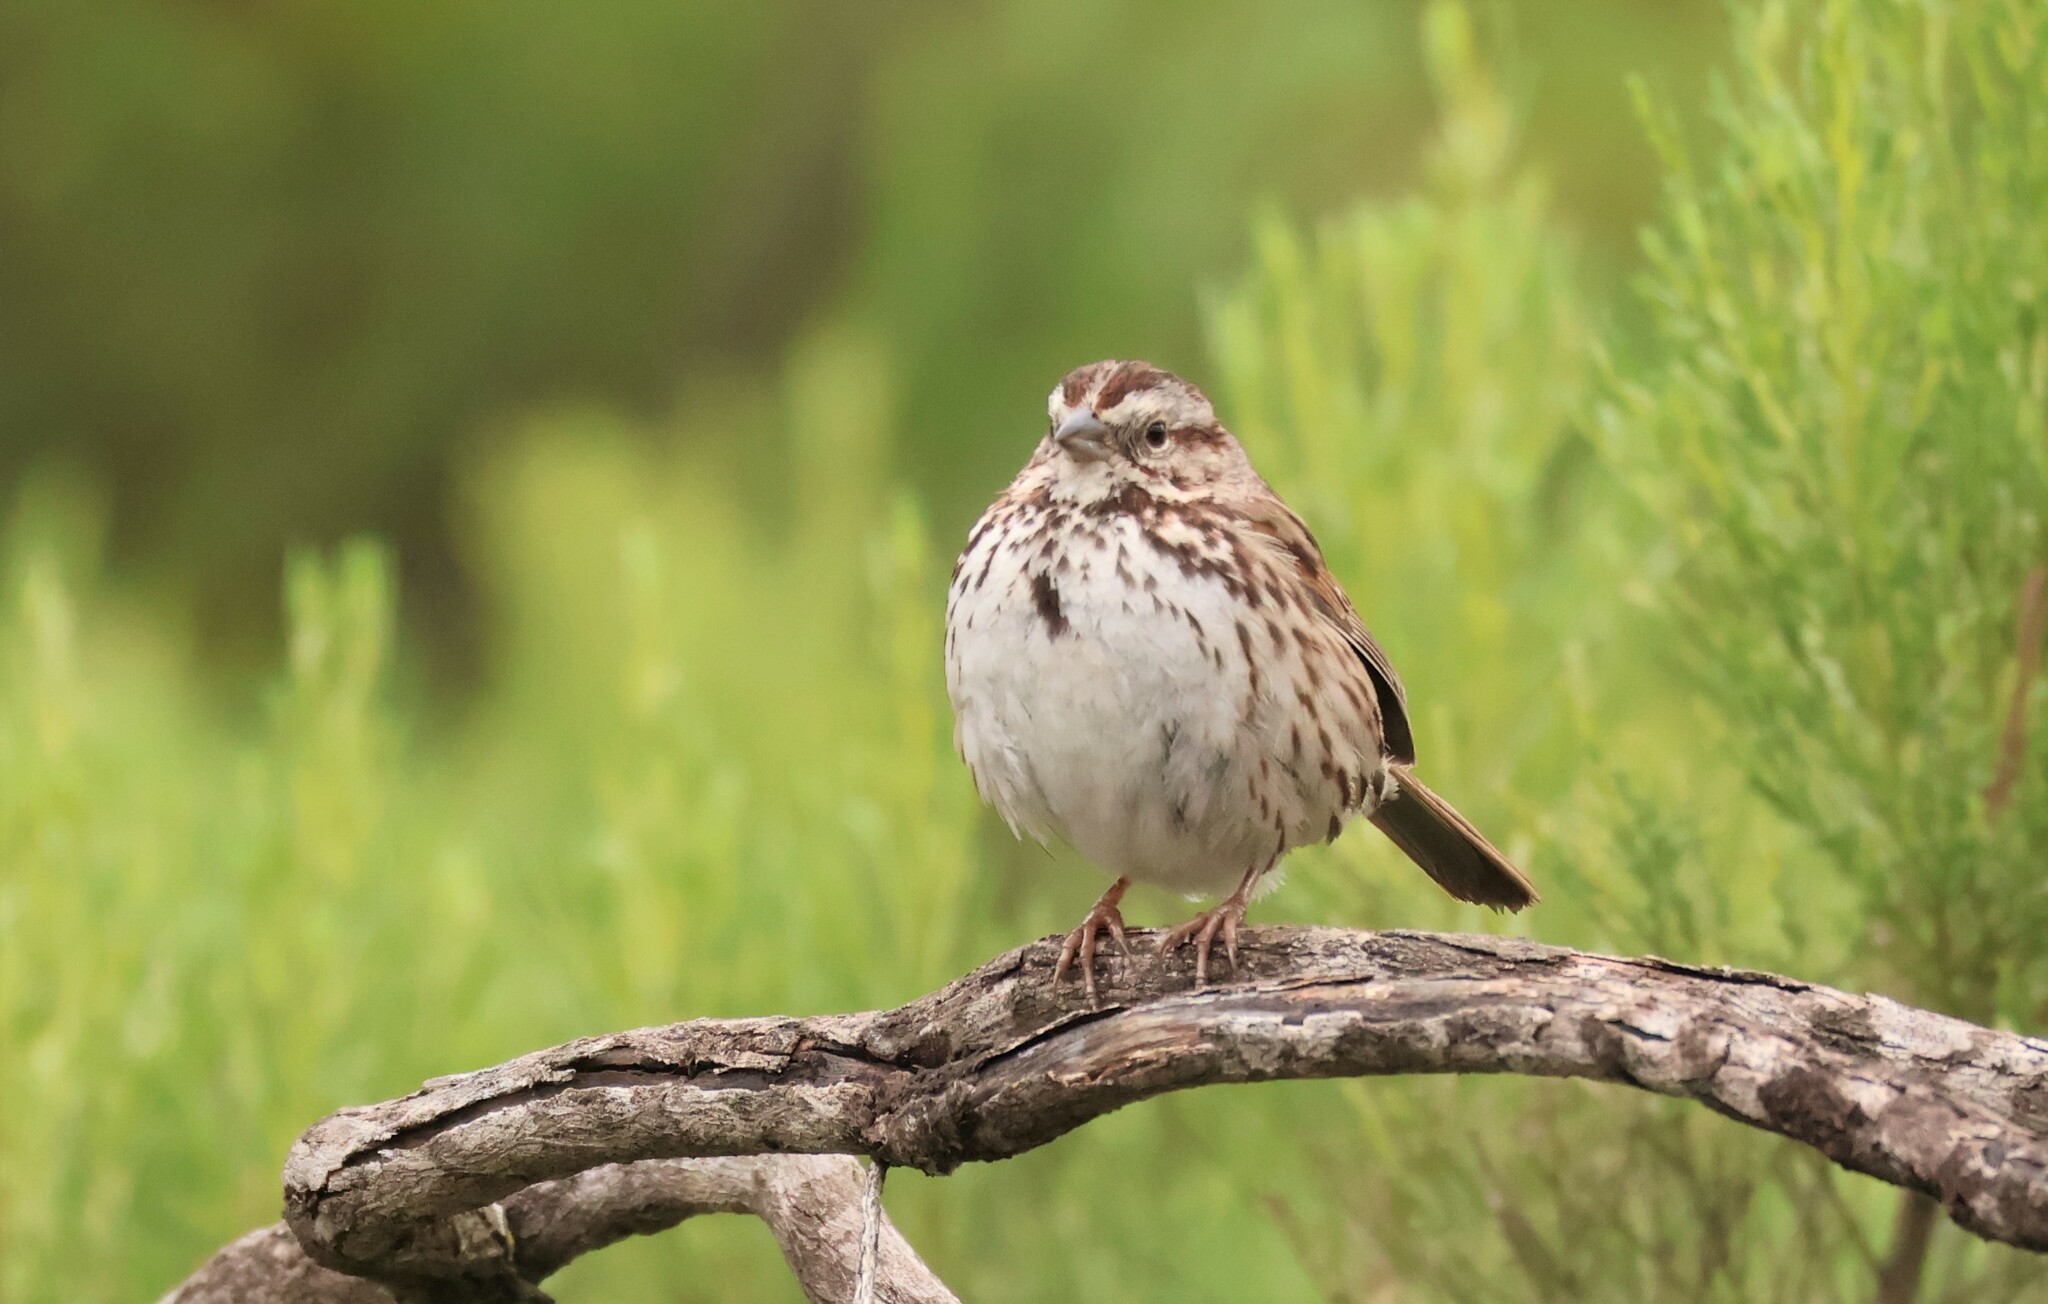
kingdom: Animalia
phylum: Chordata
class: Aves
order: Passeriformes
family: Passerellidae
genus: Melospiza
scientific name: Melospiza melodia
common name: Song sparrow
